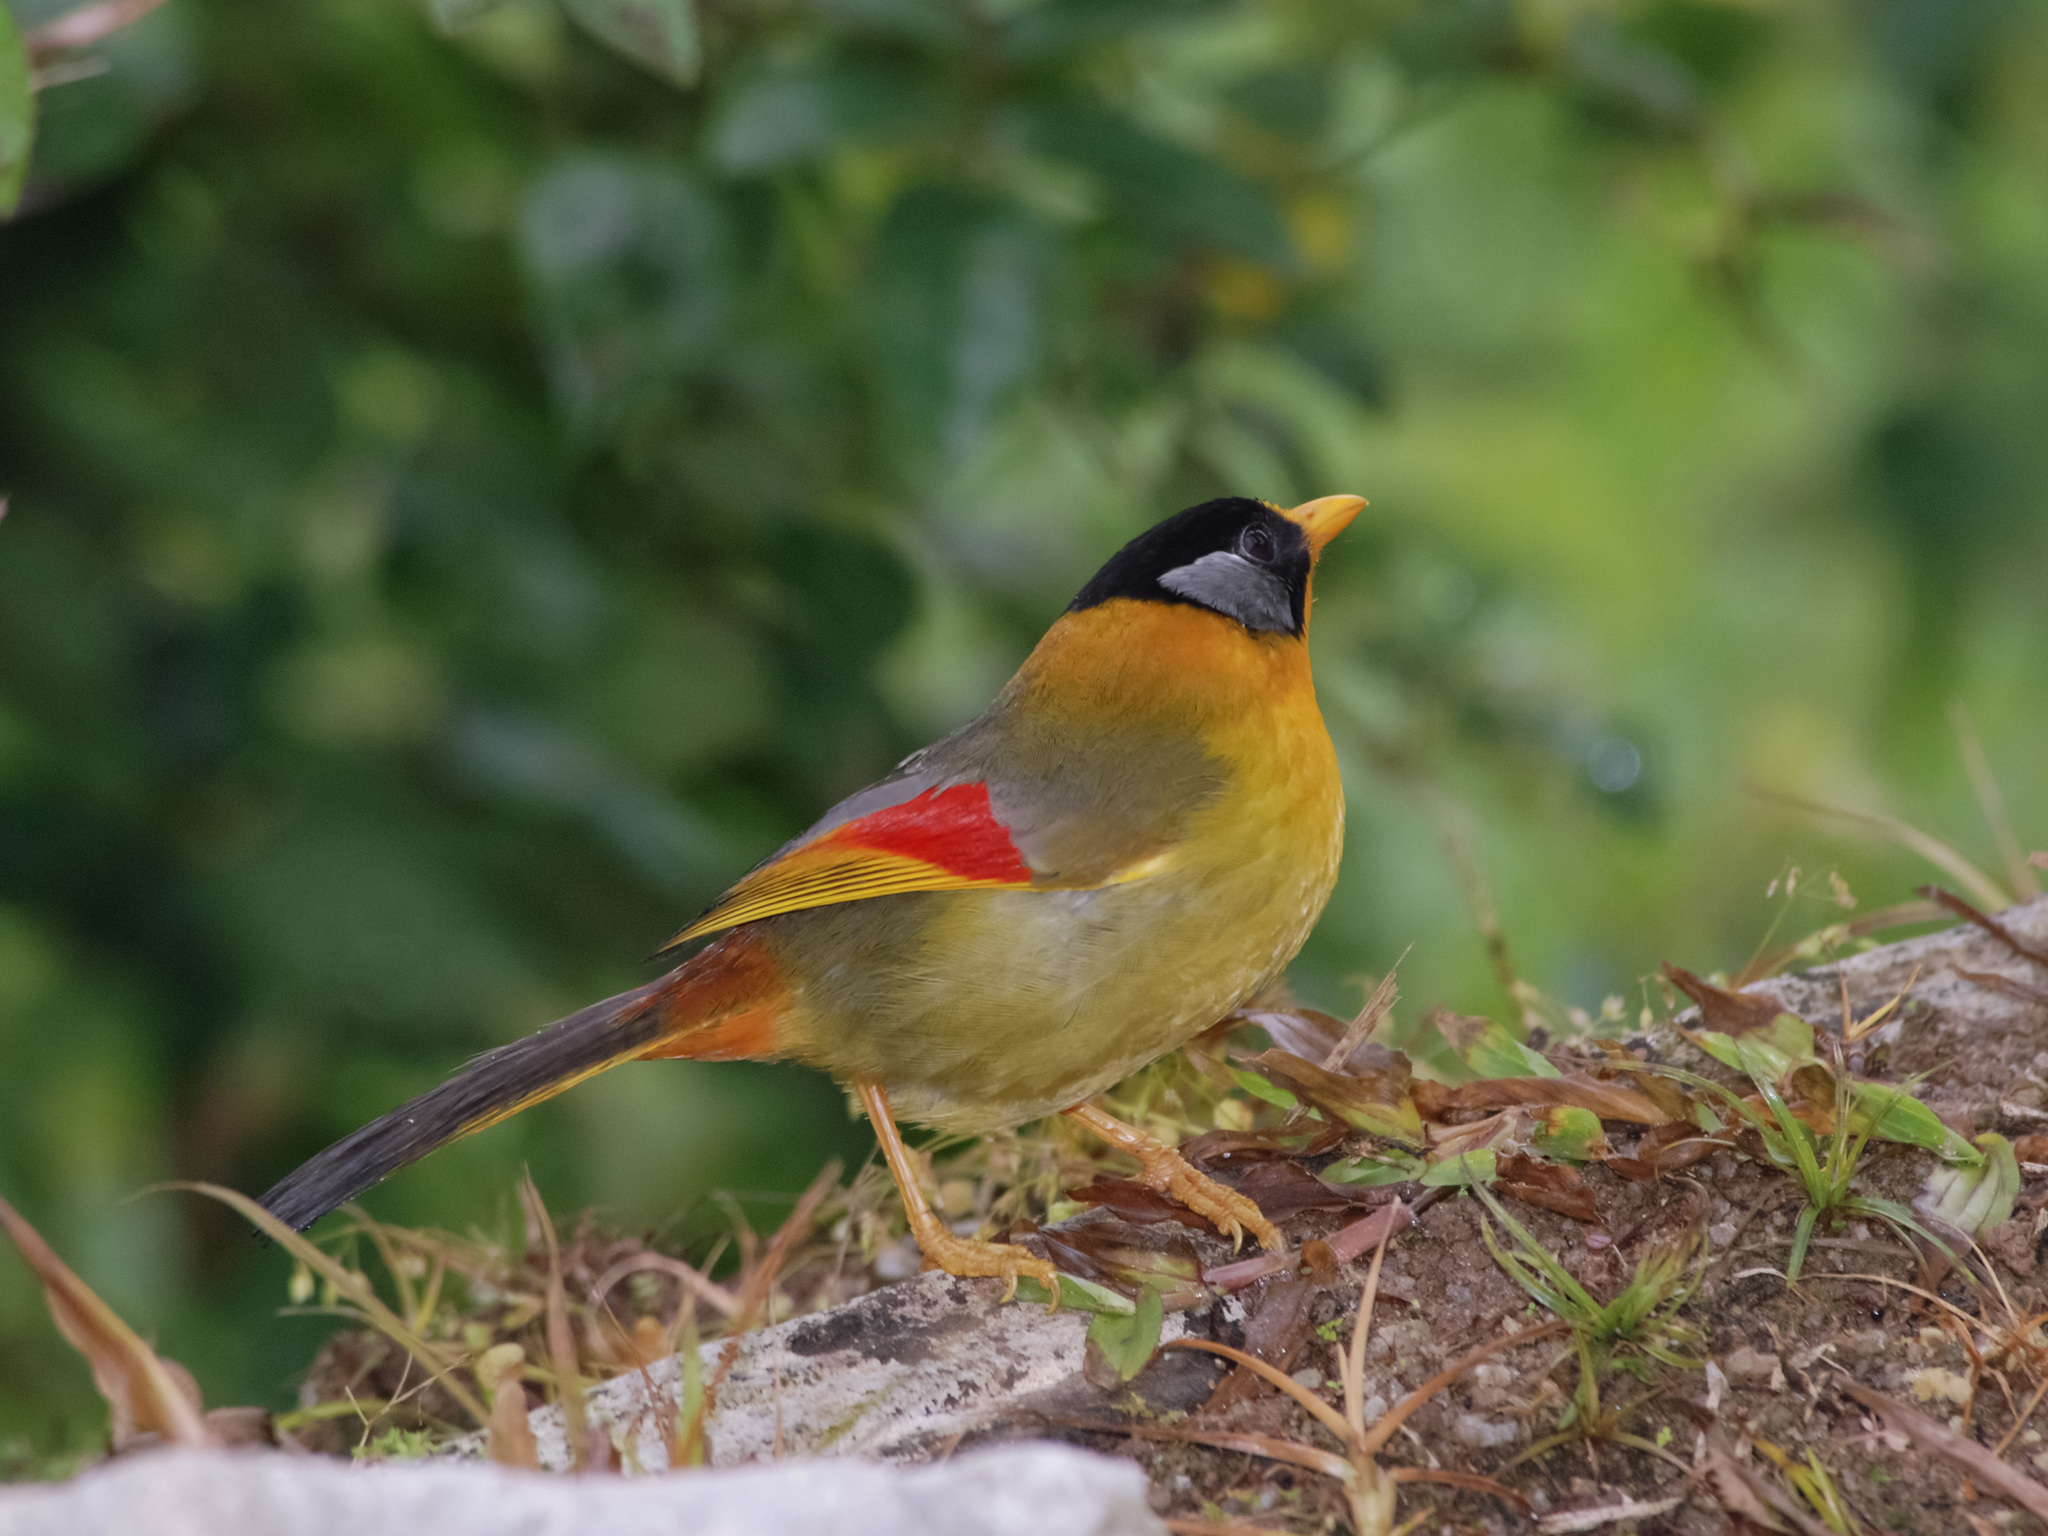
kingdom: Animalia
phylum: Chordata
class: Aves
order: Passeriformes
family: Leiothrichidae
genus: Leiothrix
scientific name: Leiothrix argentauris
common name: Silver-eared mesia
